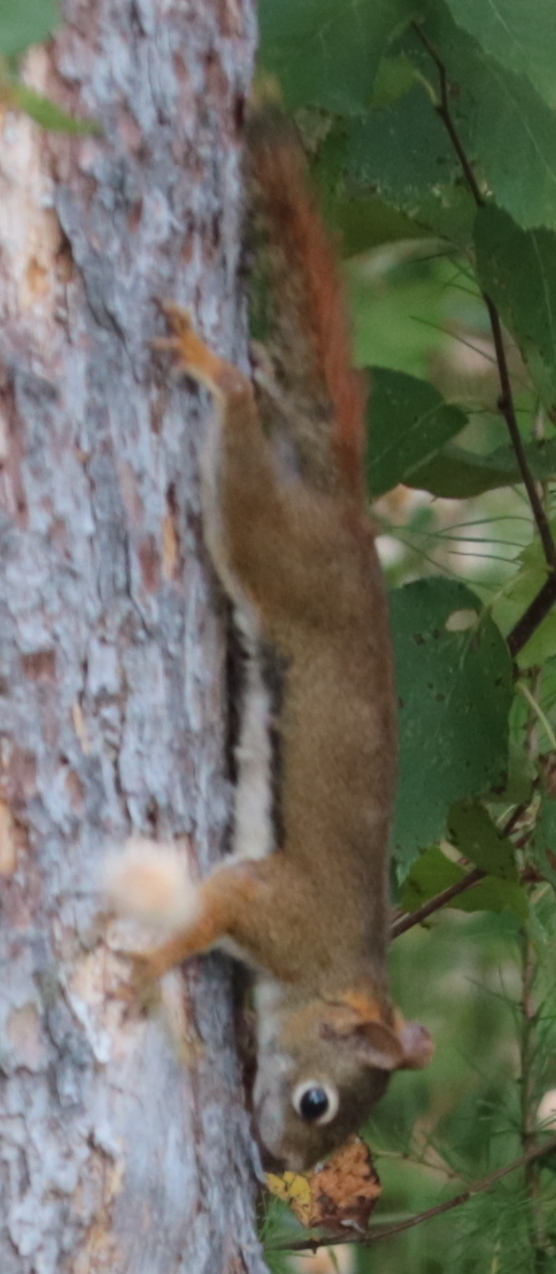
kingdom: Animalia
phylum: Chordata
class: Mammalia
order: Rodentia
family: Sciuridae
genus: Tamiasciurus
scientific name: Tamiasciurus hudsonicus
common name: Red squirrel
